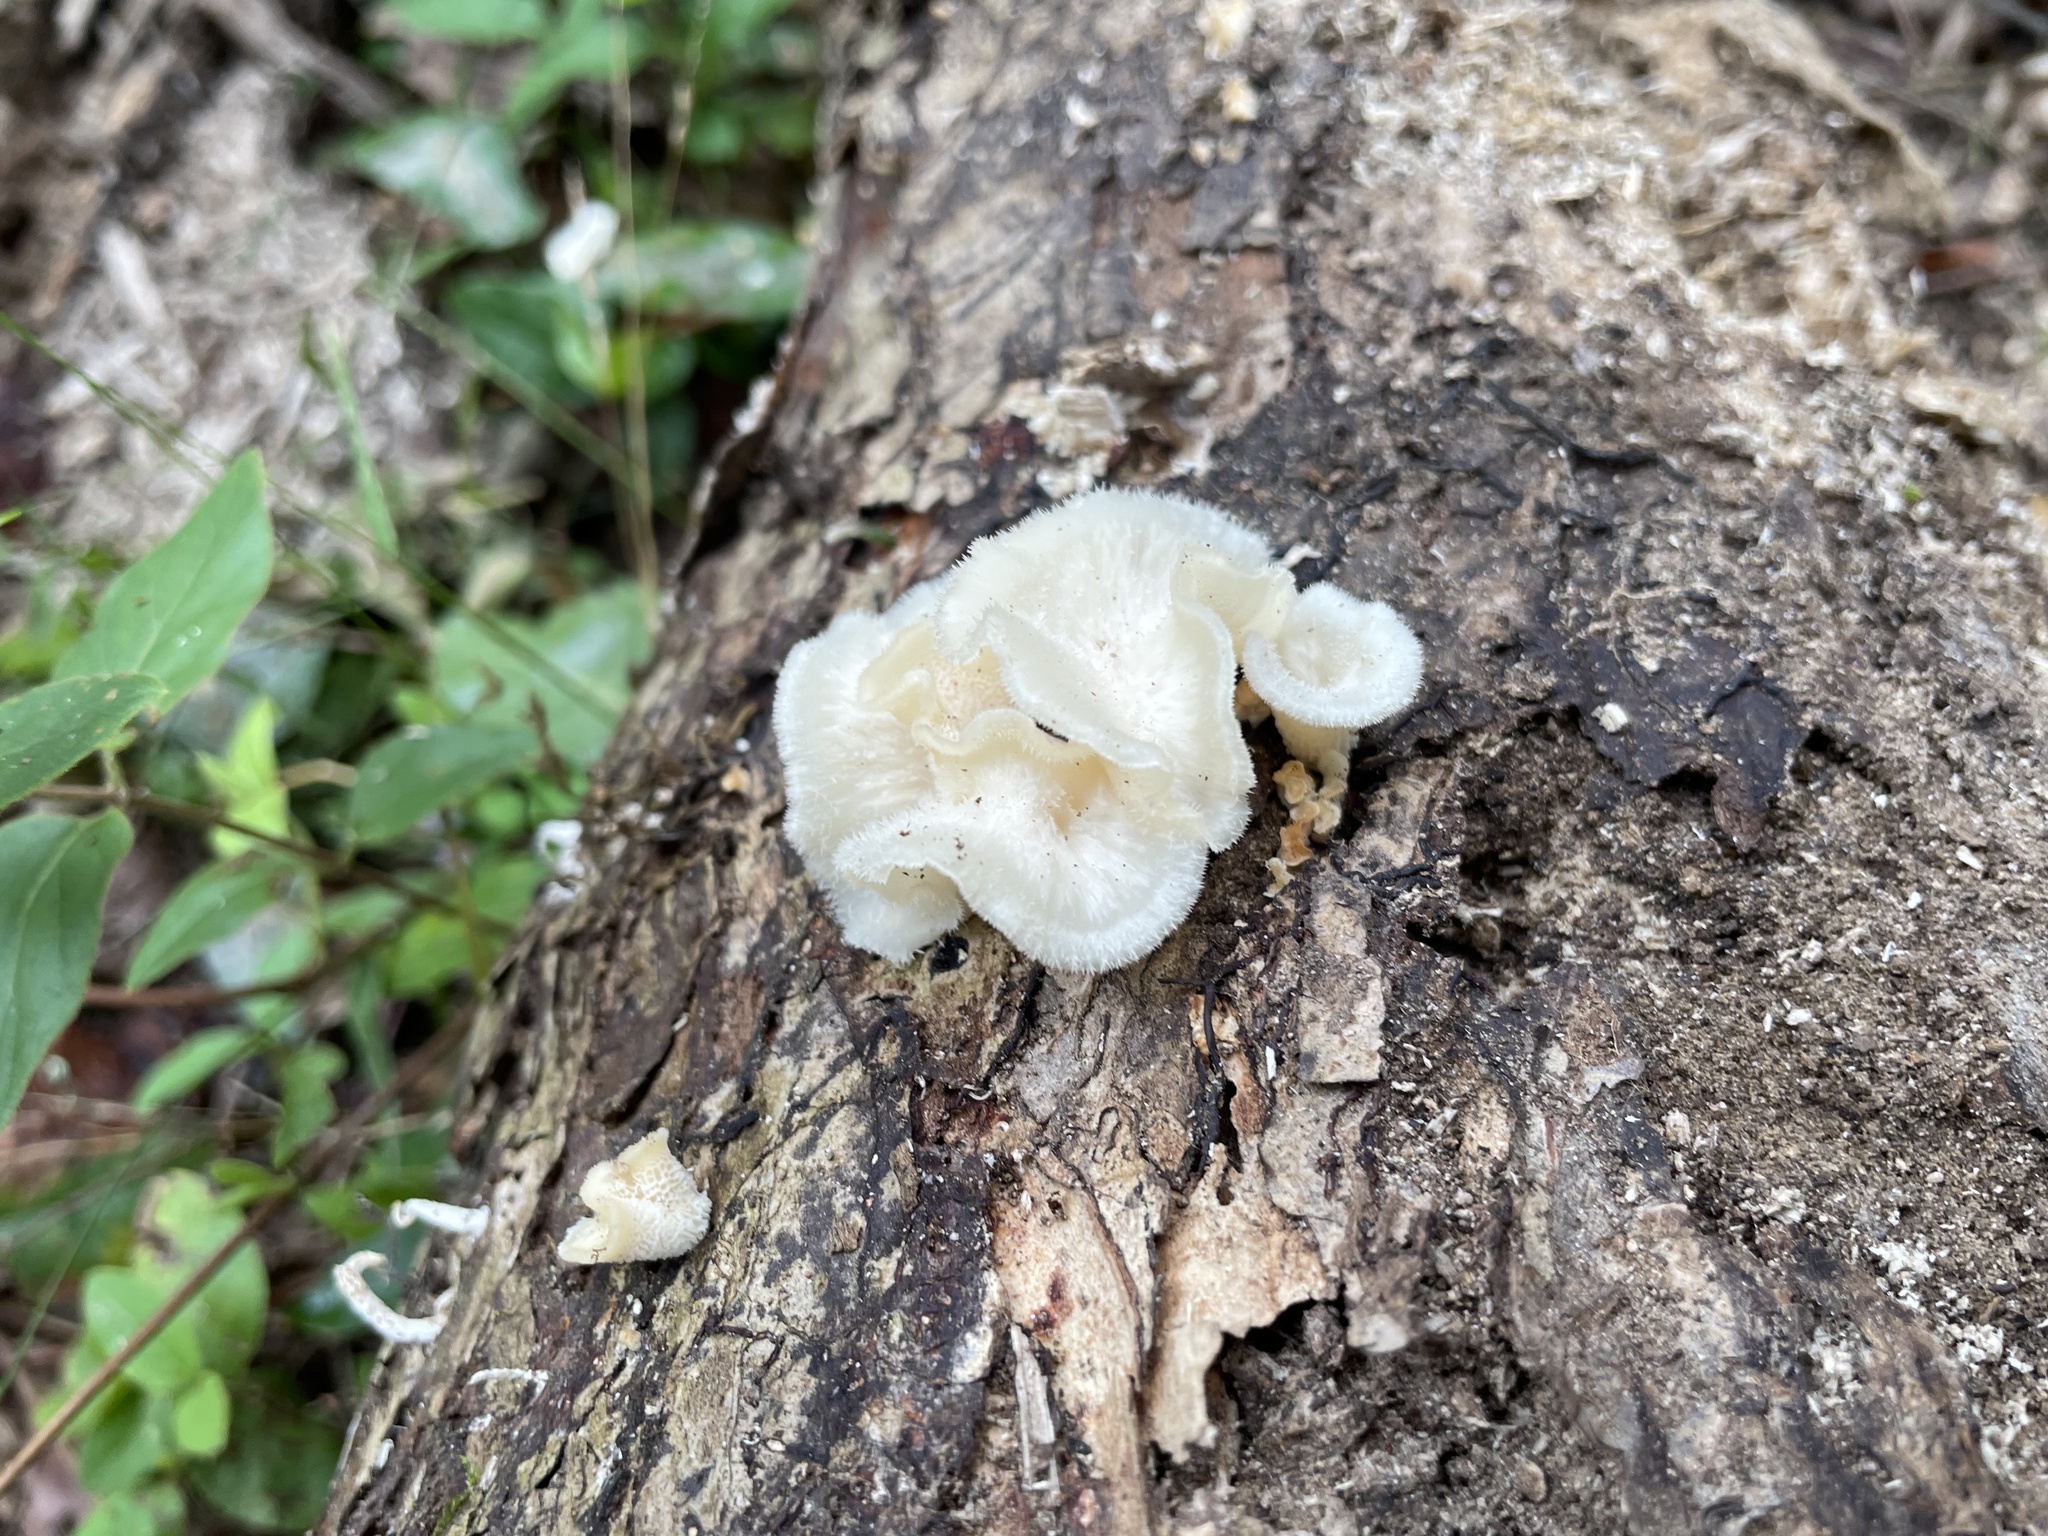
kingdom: Fungi
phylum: Basidiomycota
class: Agaricomycetes
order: Polyporales
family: Polyporaceae
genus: Favolus
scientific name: Favolus tenuiculus
